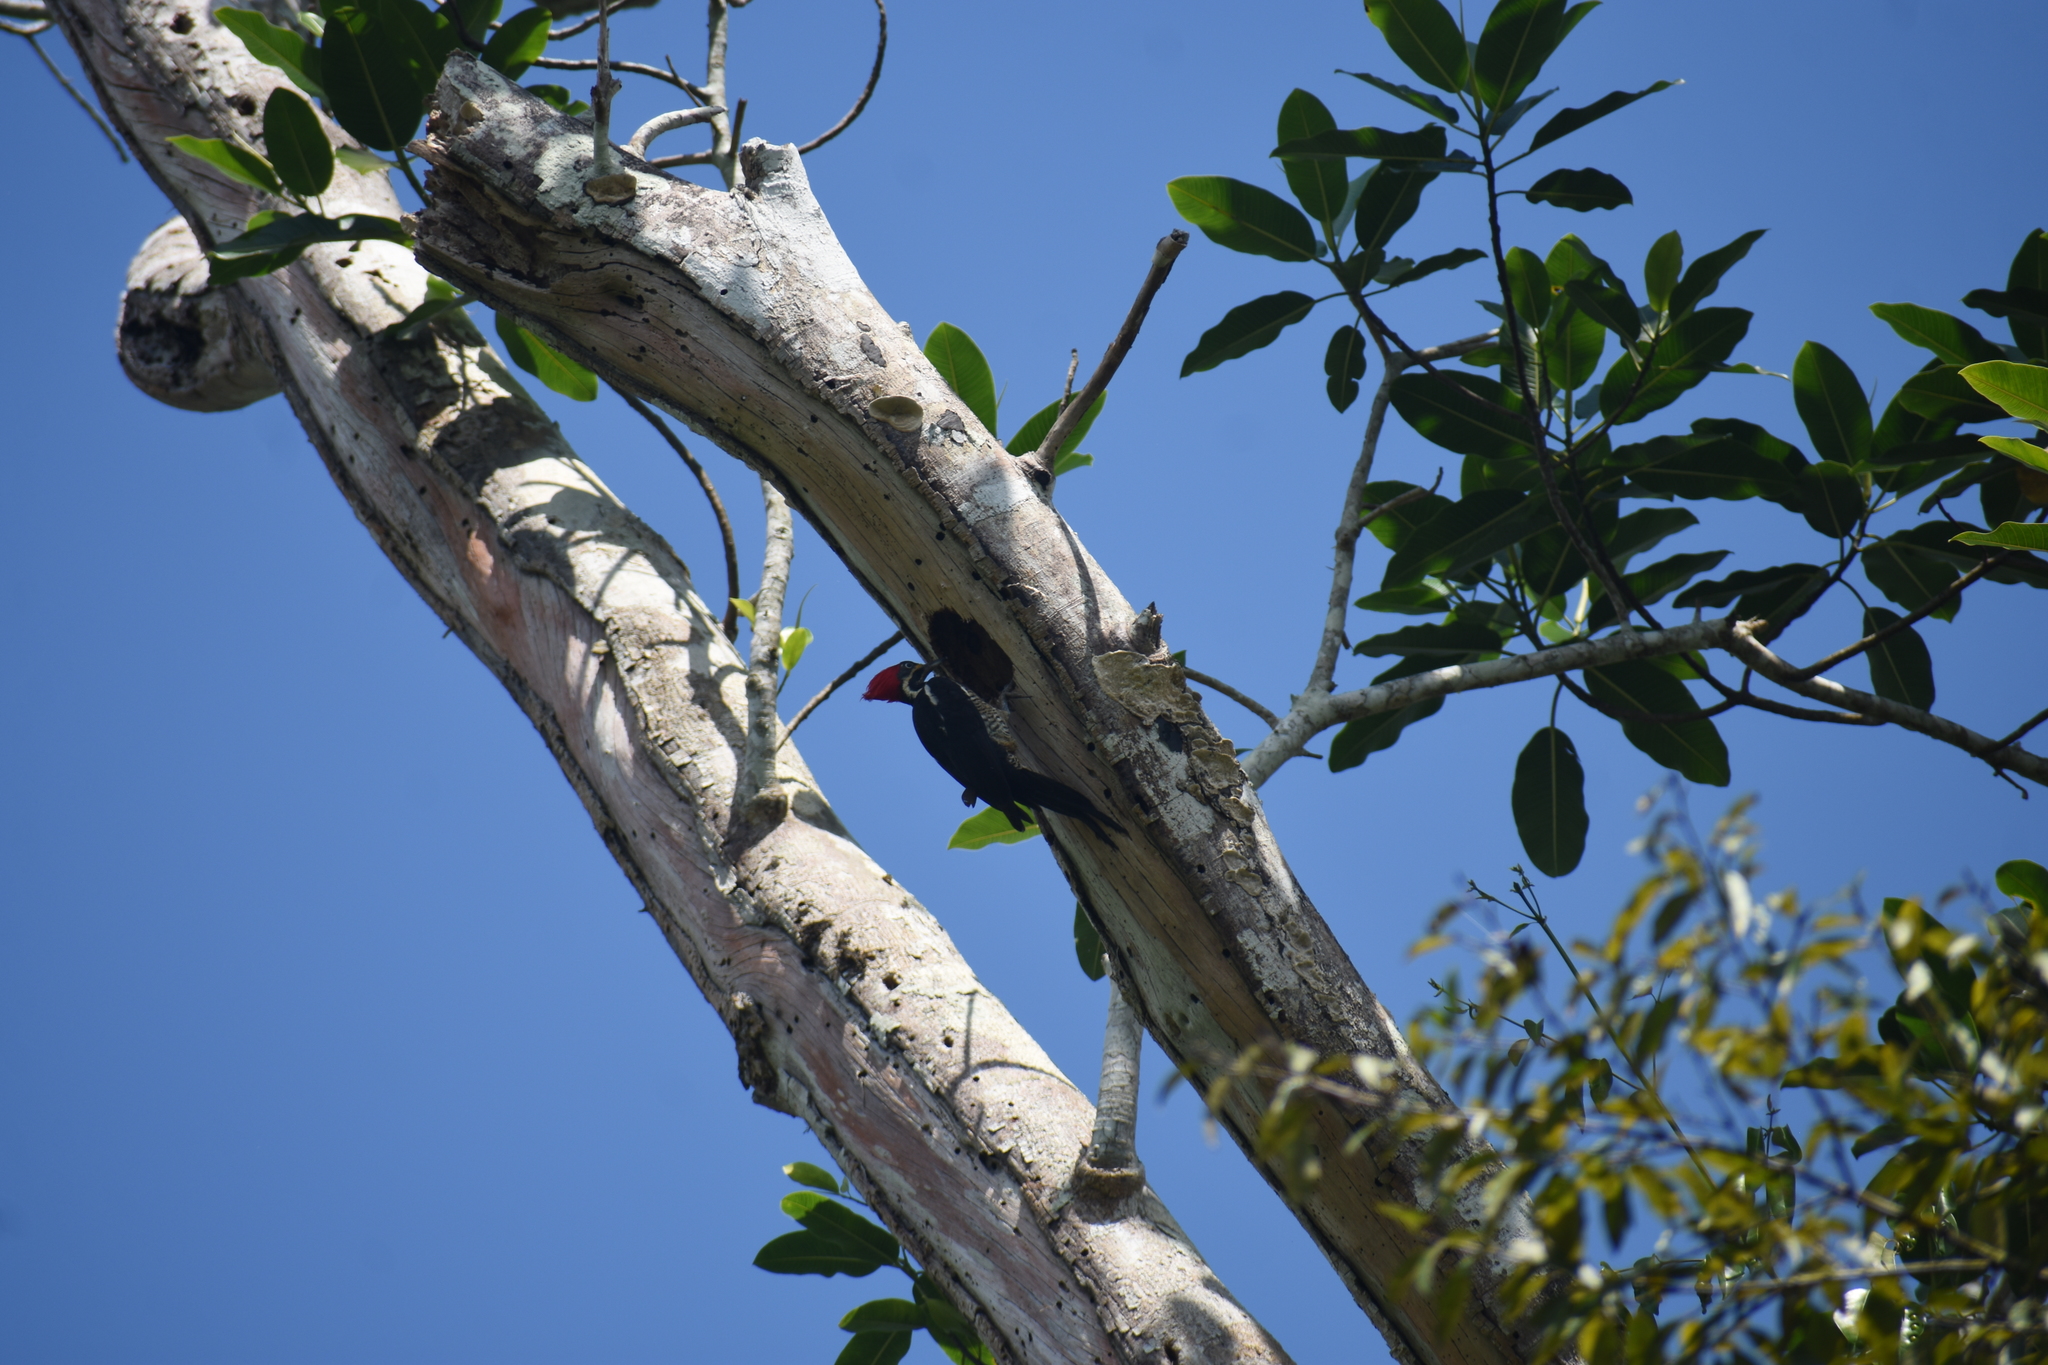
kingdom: Animalia
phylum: Chordata
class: Aves
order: Piciformes
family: Picidae
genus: Dryocopus
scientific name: Dryocopus lineatus
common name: Lineated woodpecker
